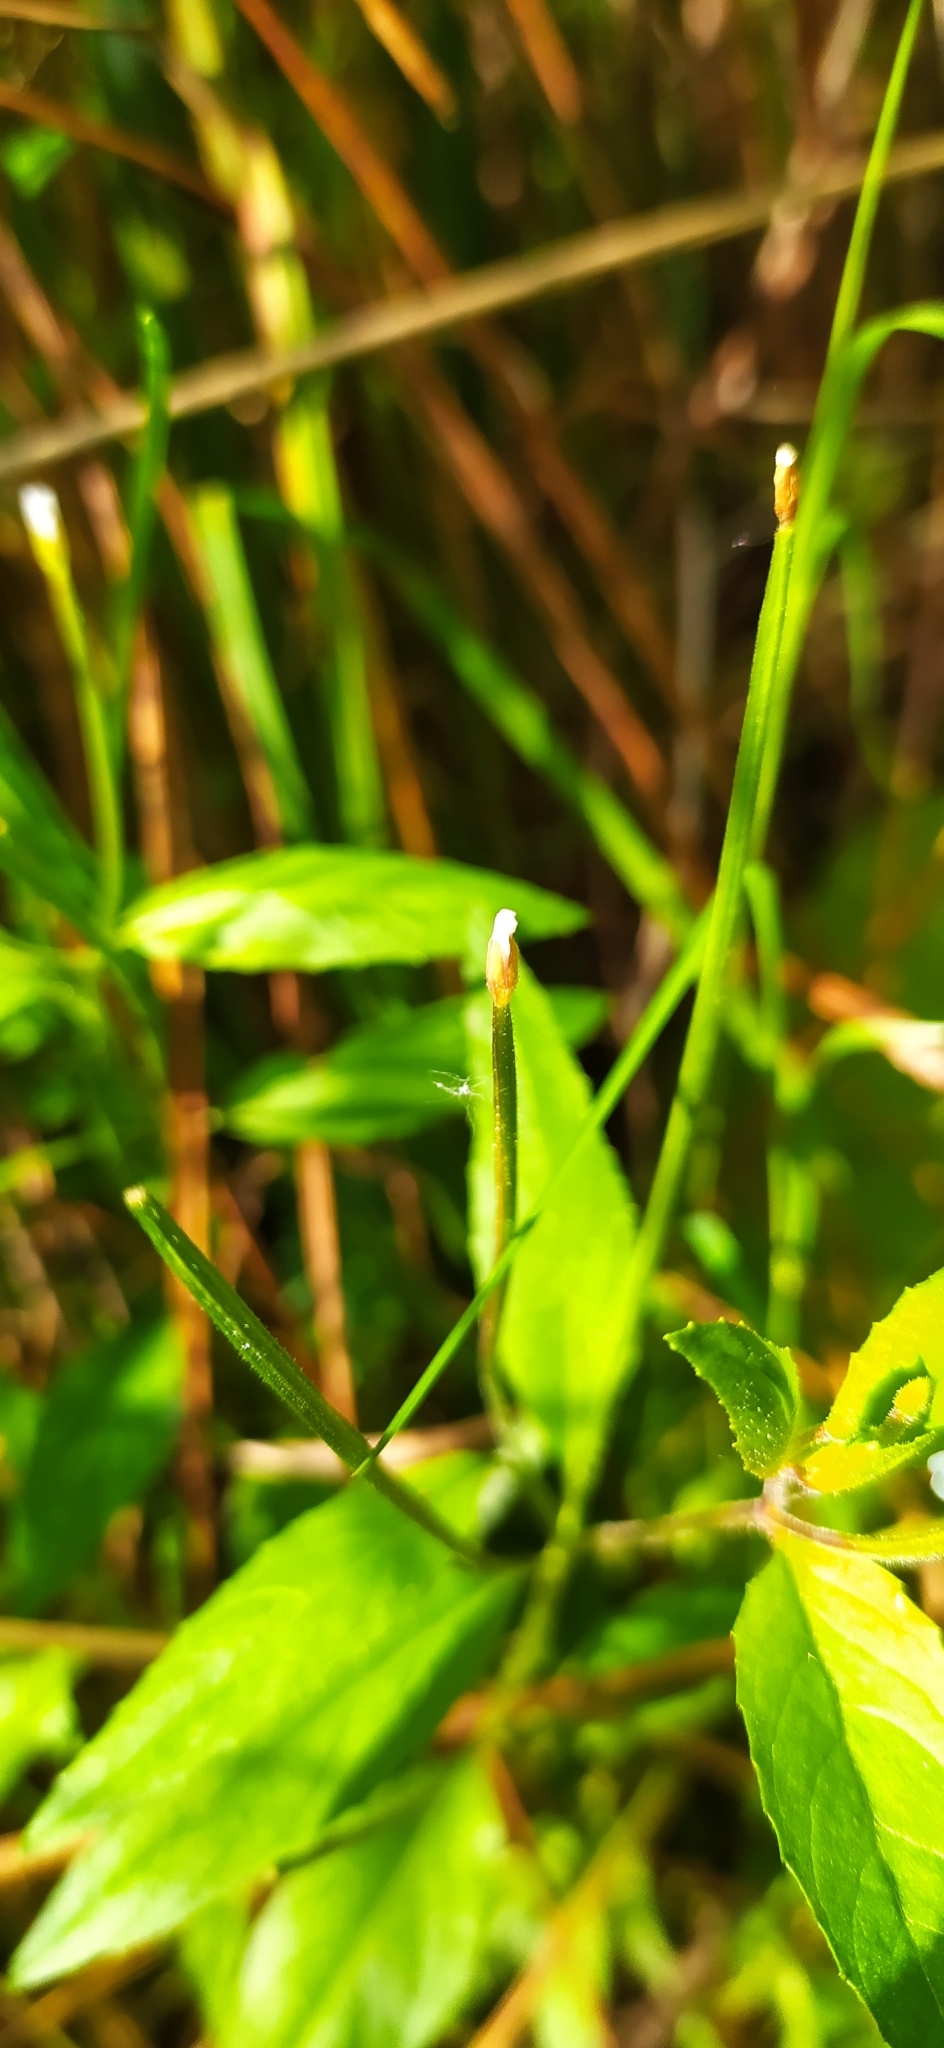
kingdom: Plantae
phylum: Tracheophyta
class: Magnoliopsida
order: Myrtales
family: Onagraceae
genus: Epilobium
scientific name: Epilobium pseudorubescens
